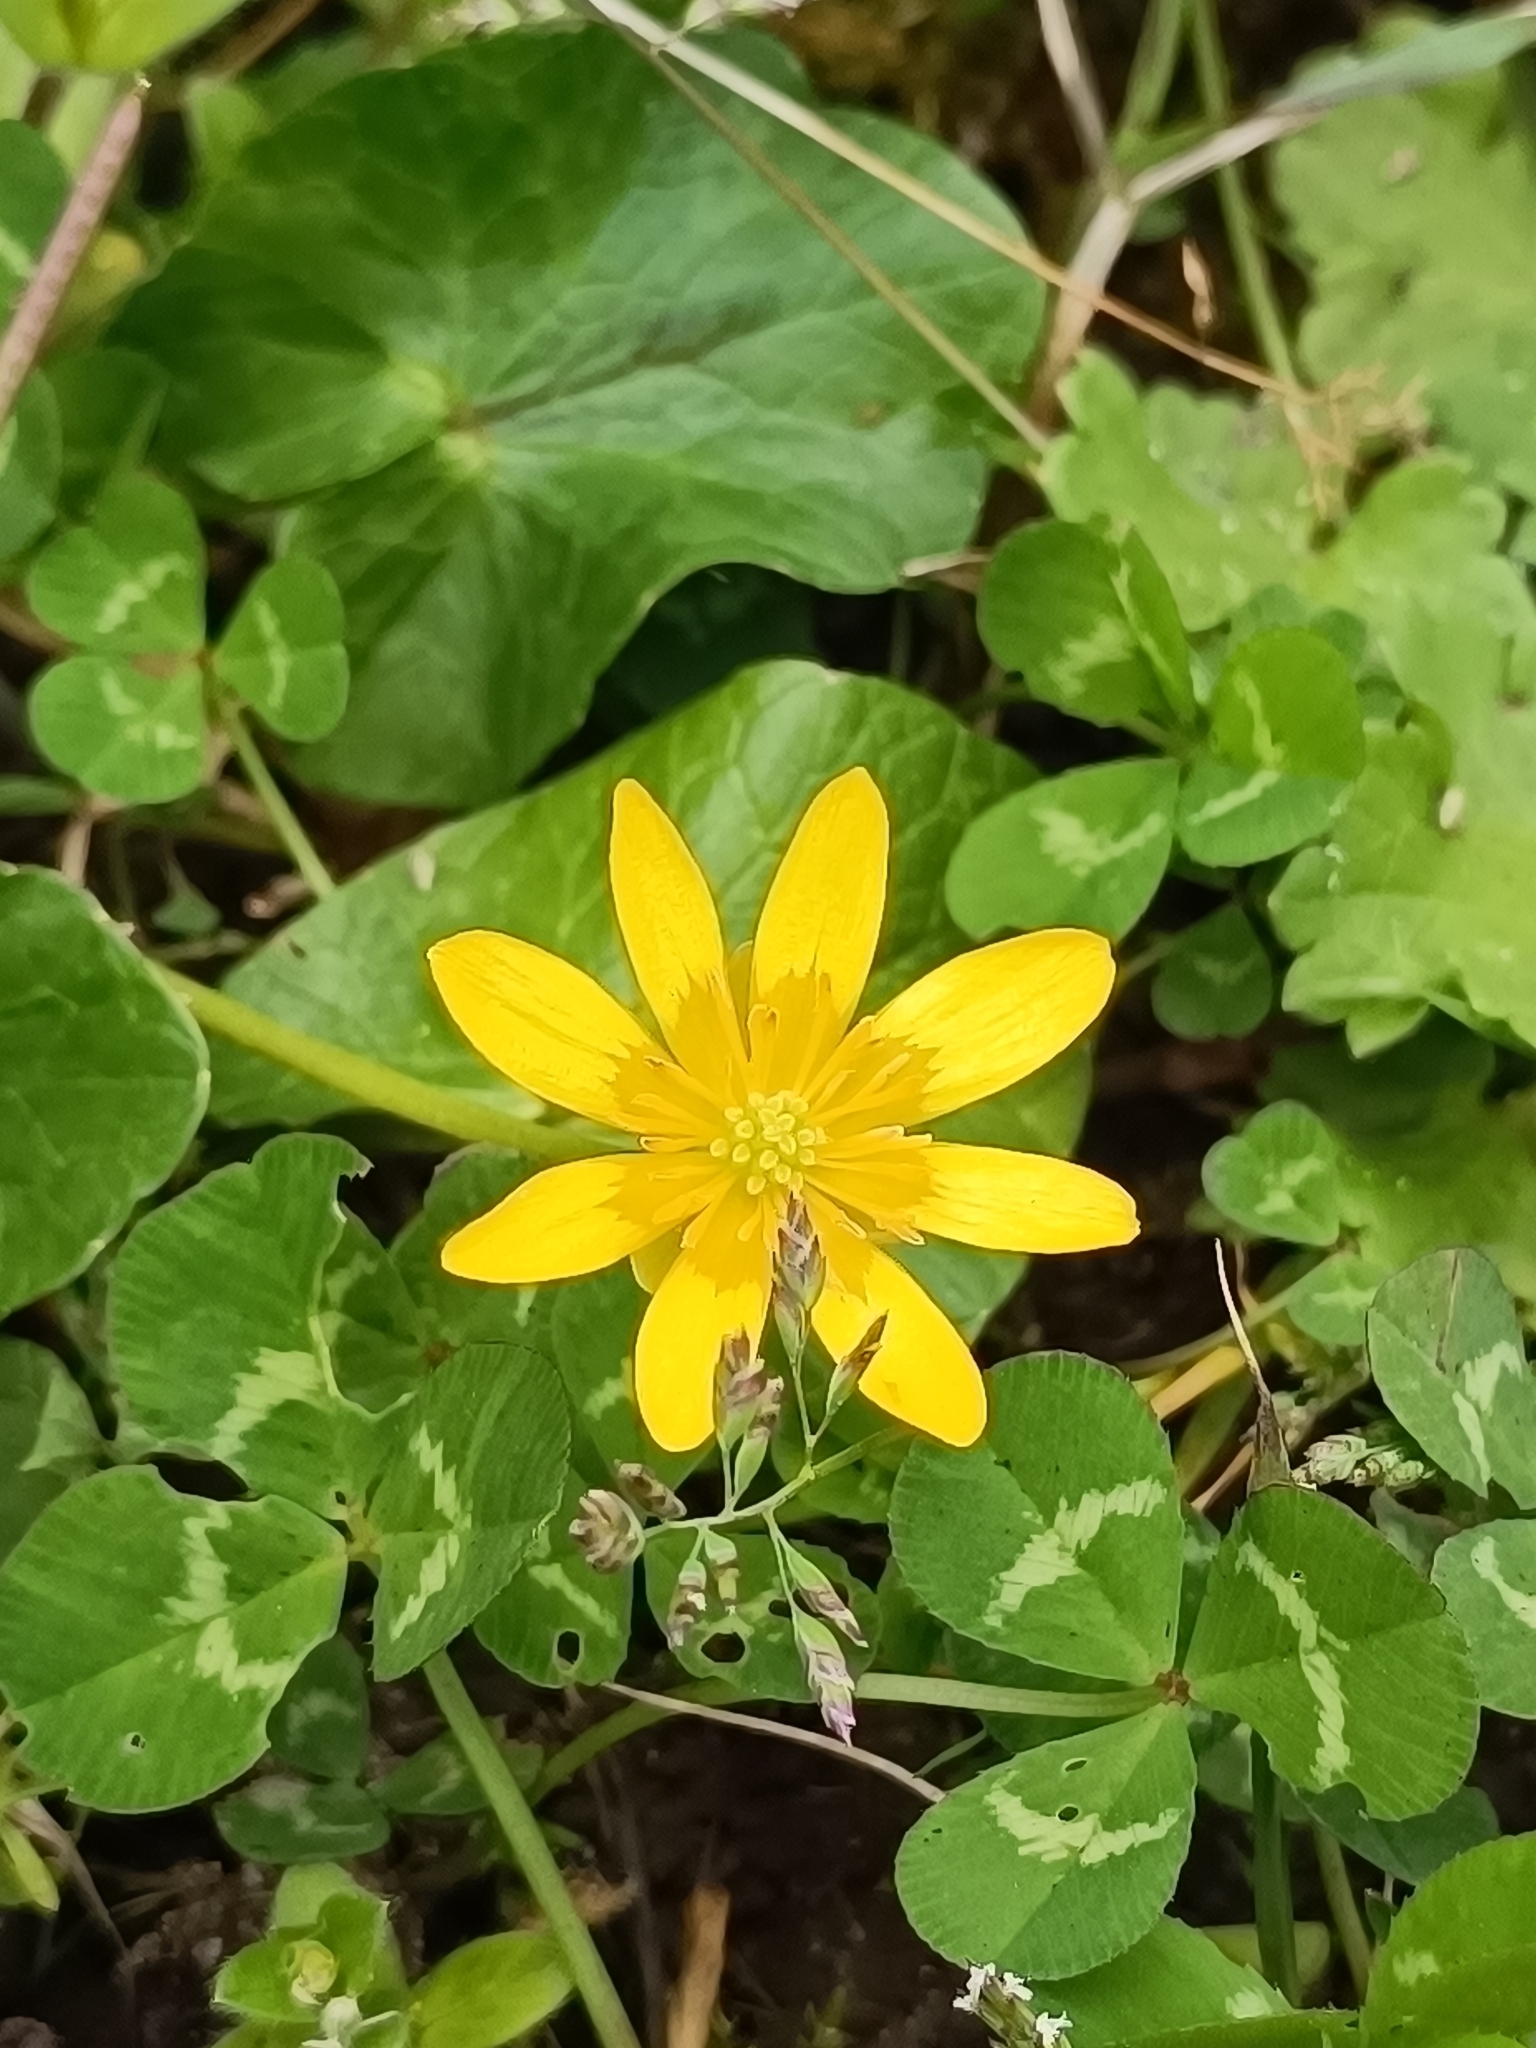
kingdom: Plantae
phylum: Tracheophyta
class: Magnoliopsida
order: Ranunculales
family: Ranunculaceae
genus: Ficaria
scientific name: Ficaria verna
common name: Lesser celandine
